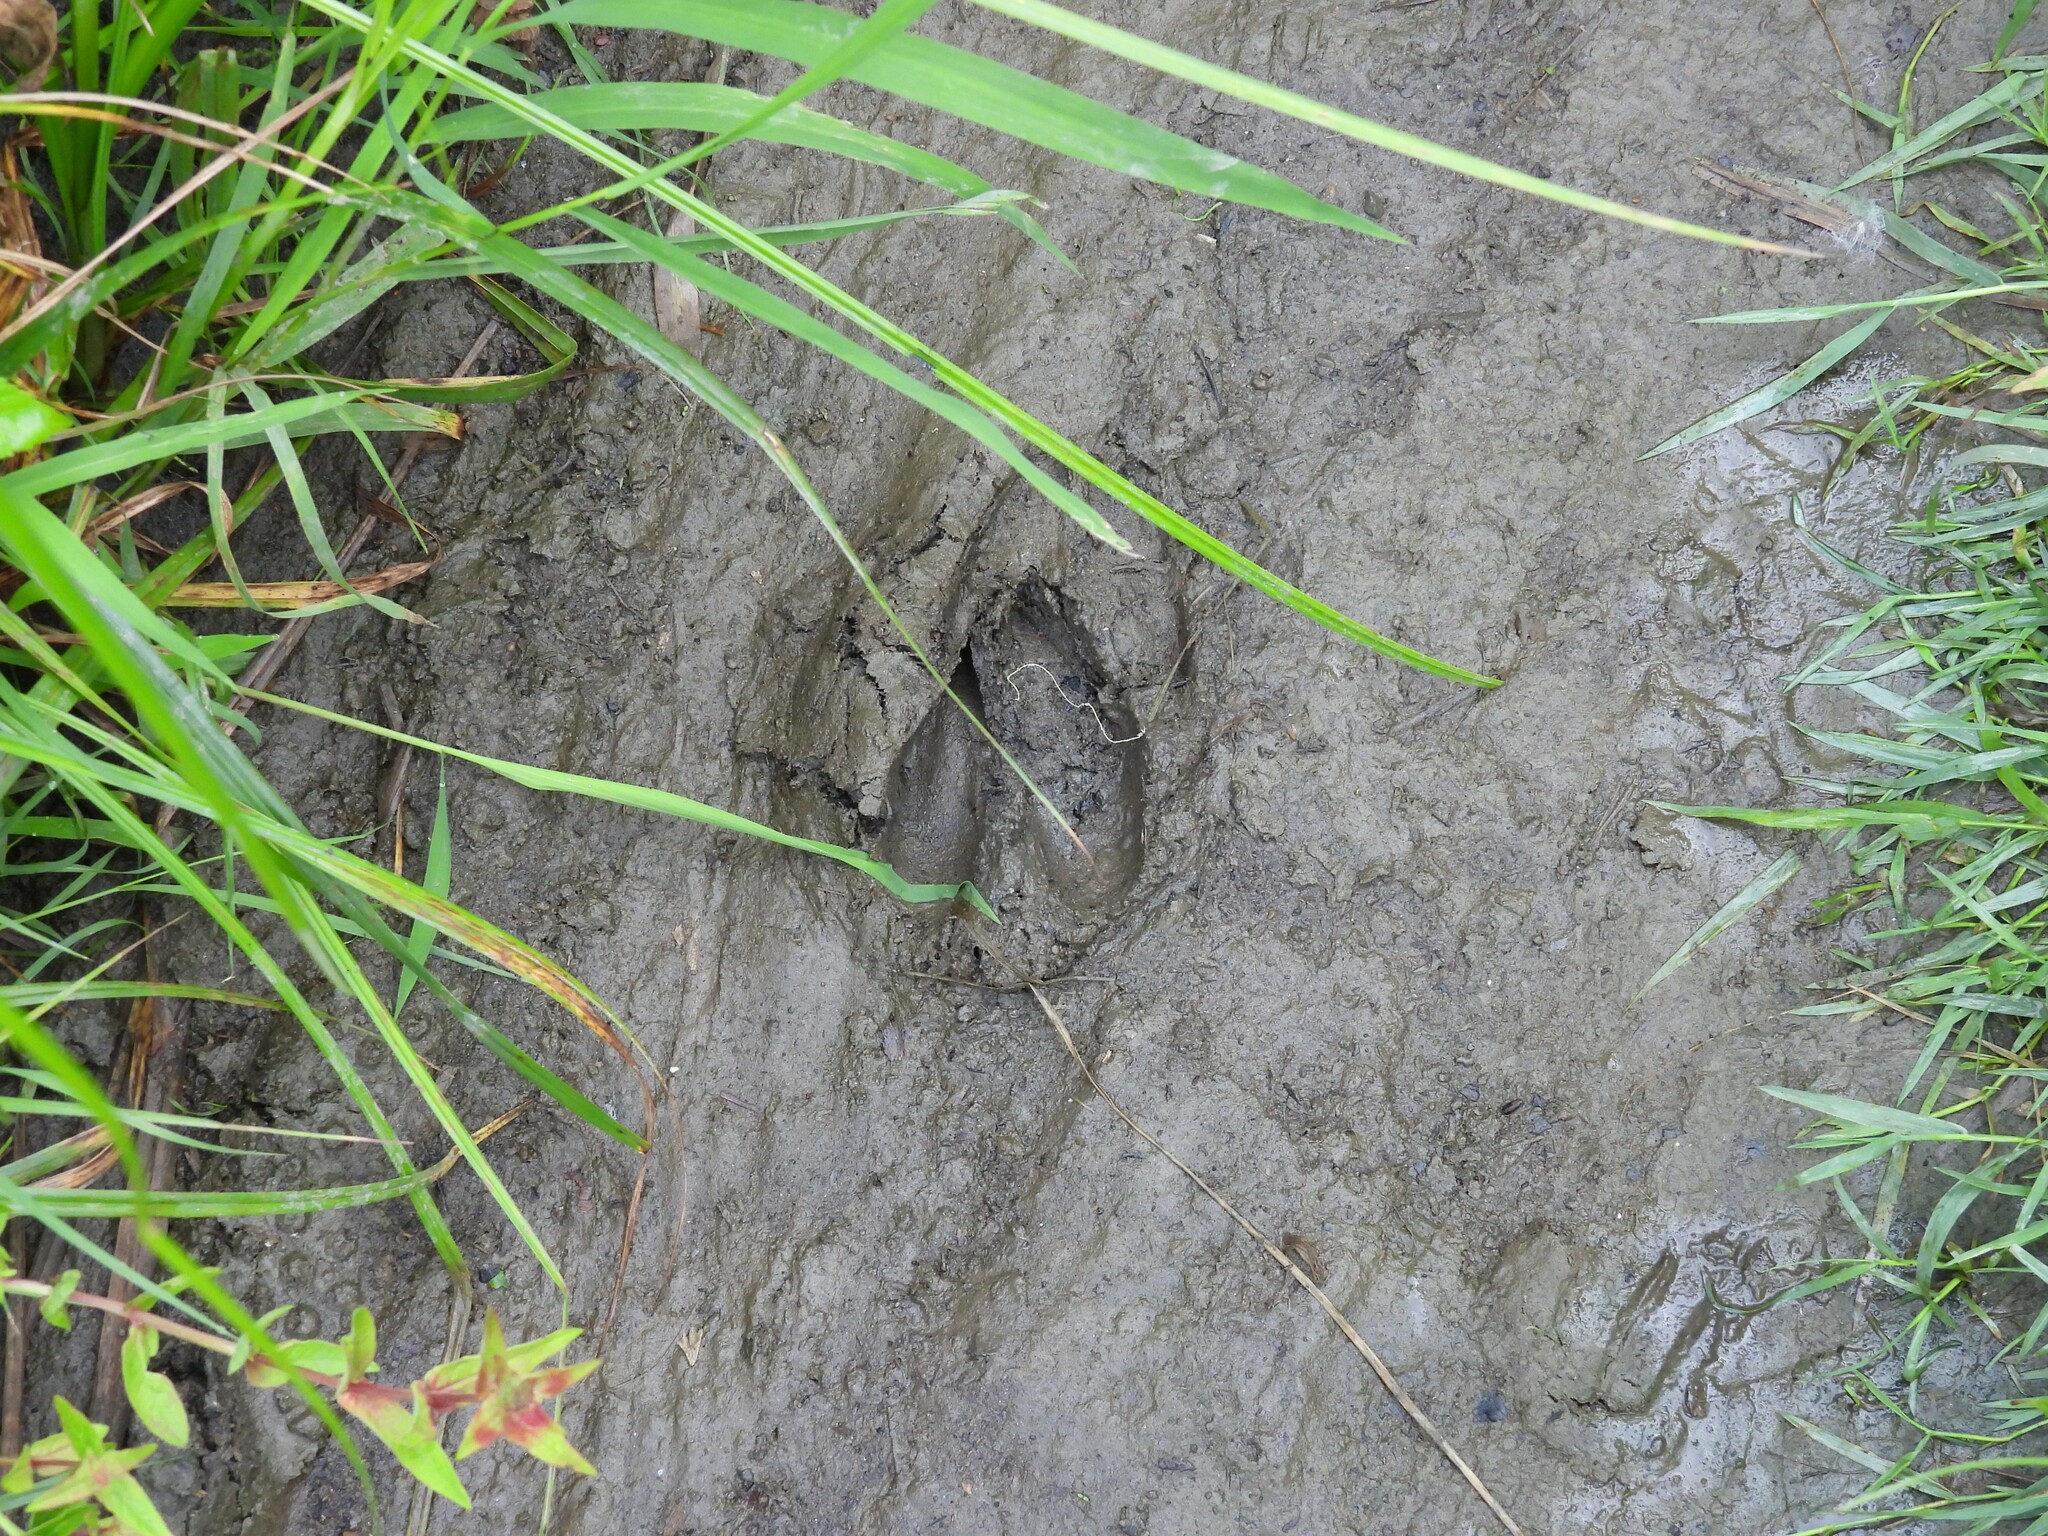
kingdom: Animalia
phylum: Chordata
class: Mammalia
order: Artiodactyla
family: Cervidae
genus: Odocoileus
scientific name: Odocoileus virginianus
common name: White-tailed deer
